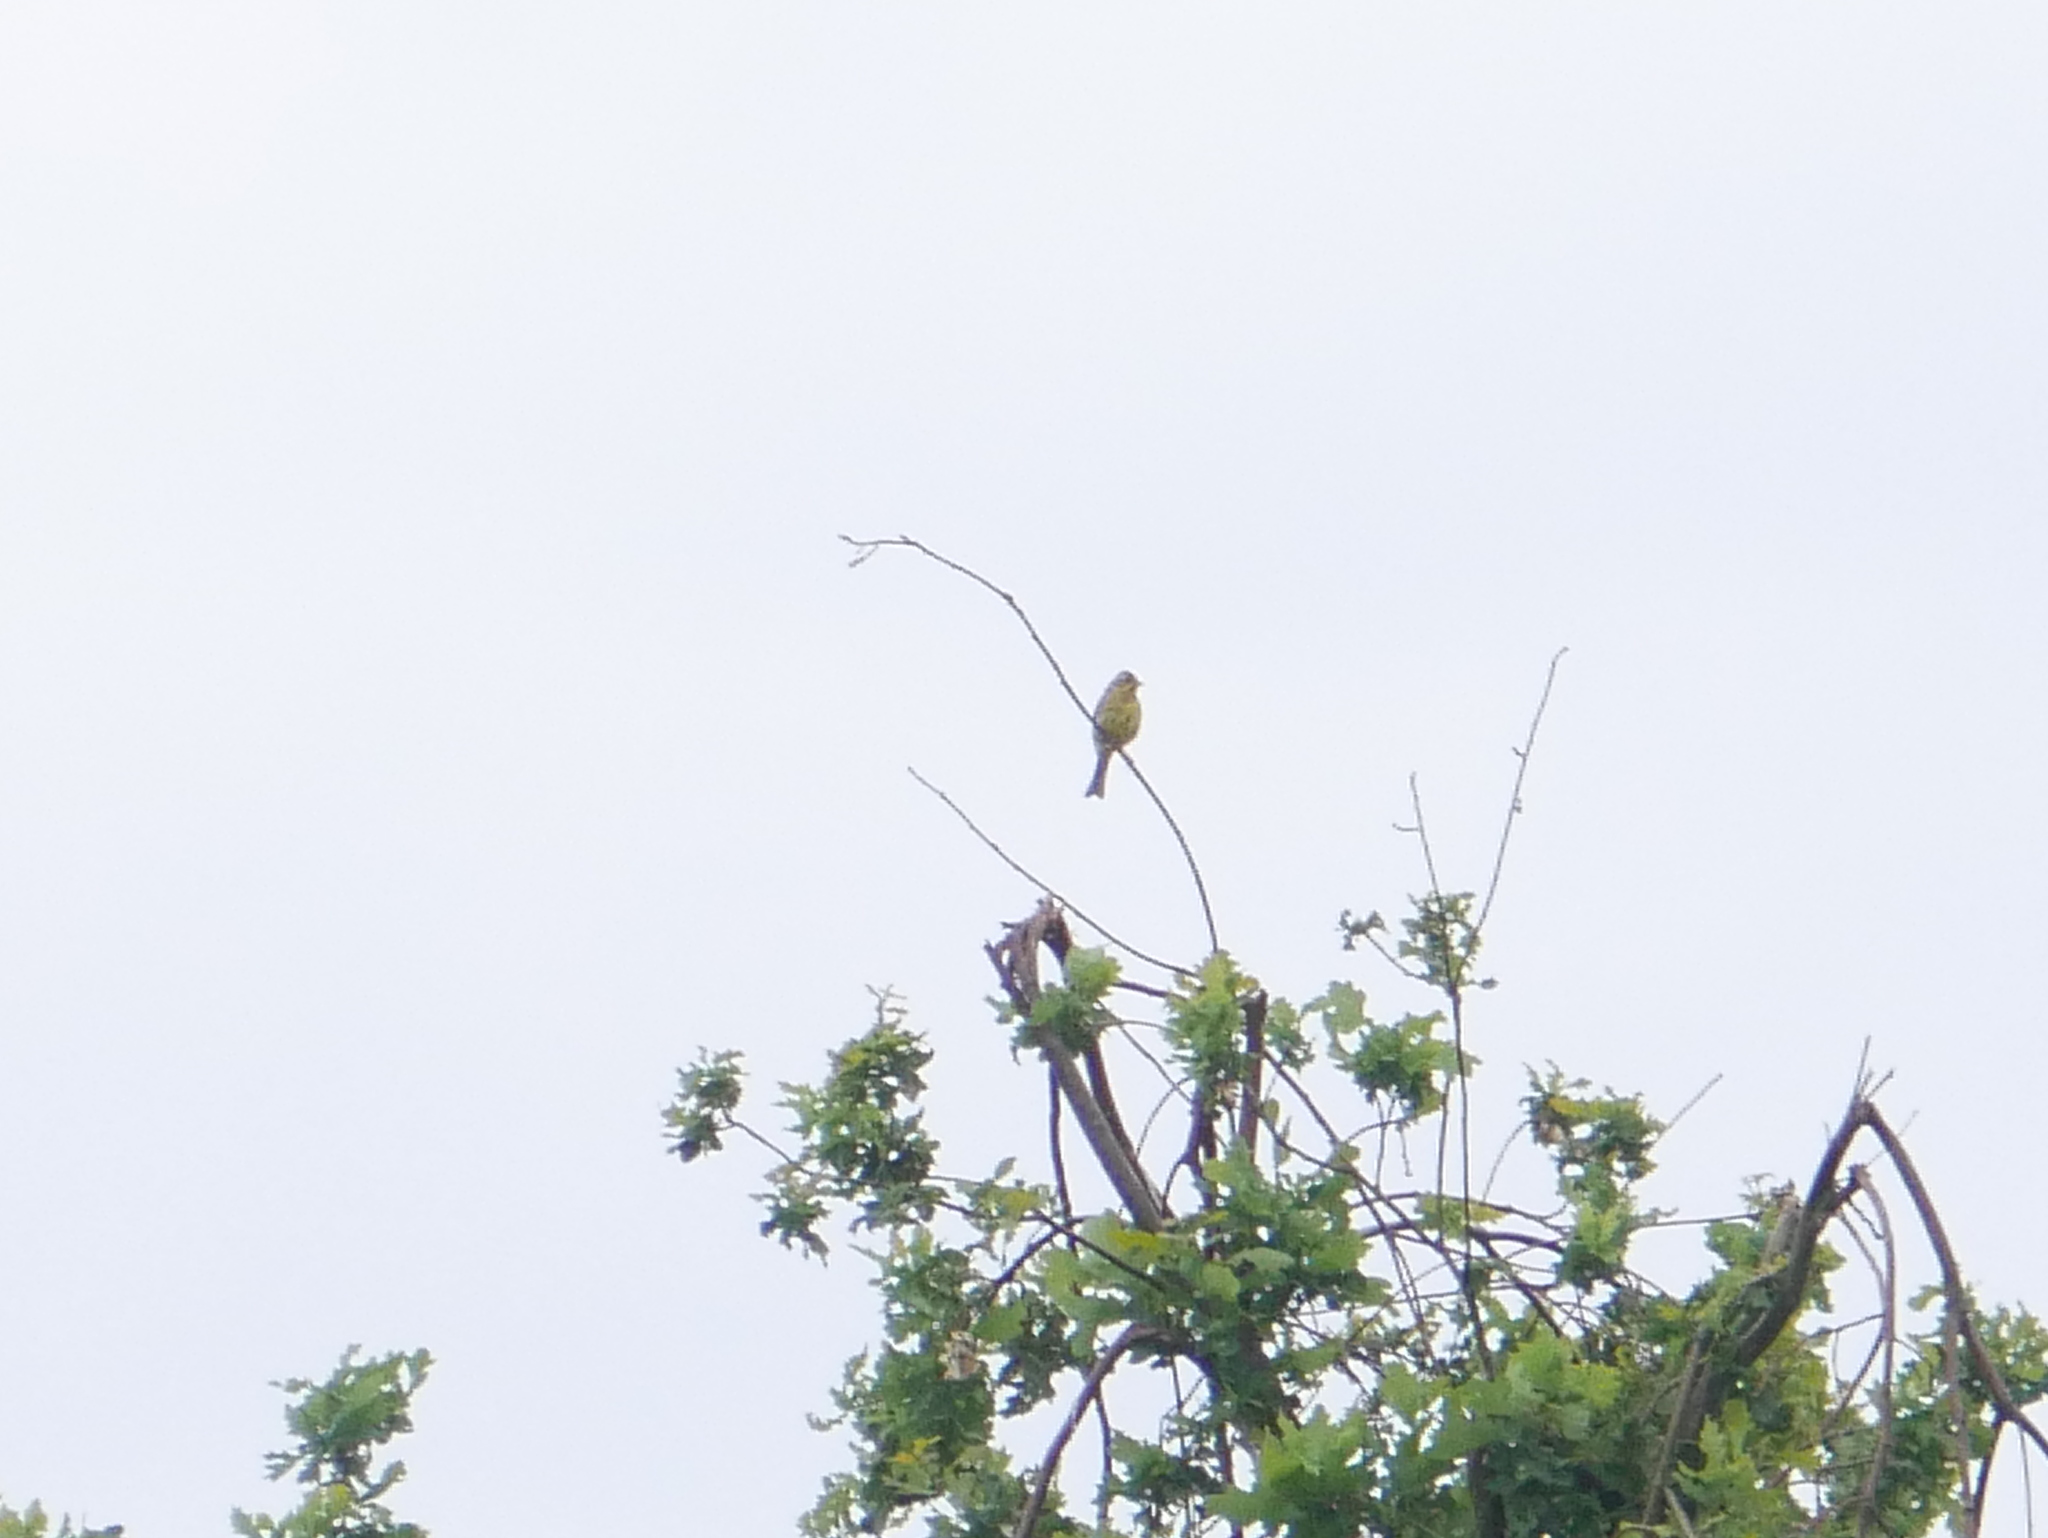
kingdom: Animalia
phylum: Chordata
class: Aves
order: Passeriformes
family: Emberizidae
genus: Emberiza
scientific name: Emberiza citrinella
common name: Yellowhammer
